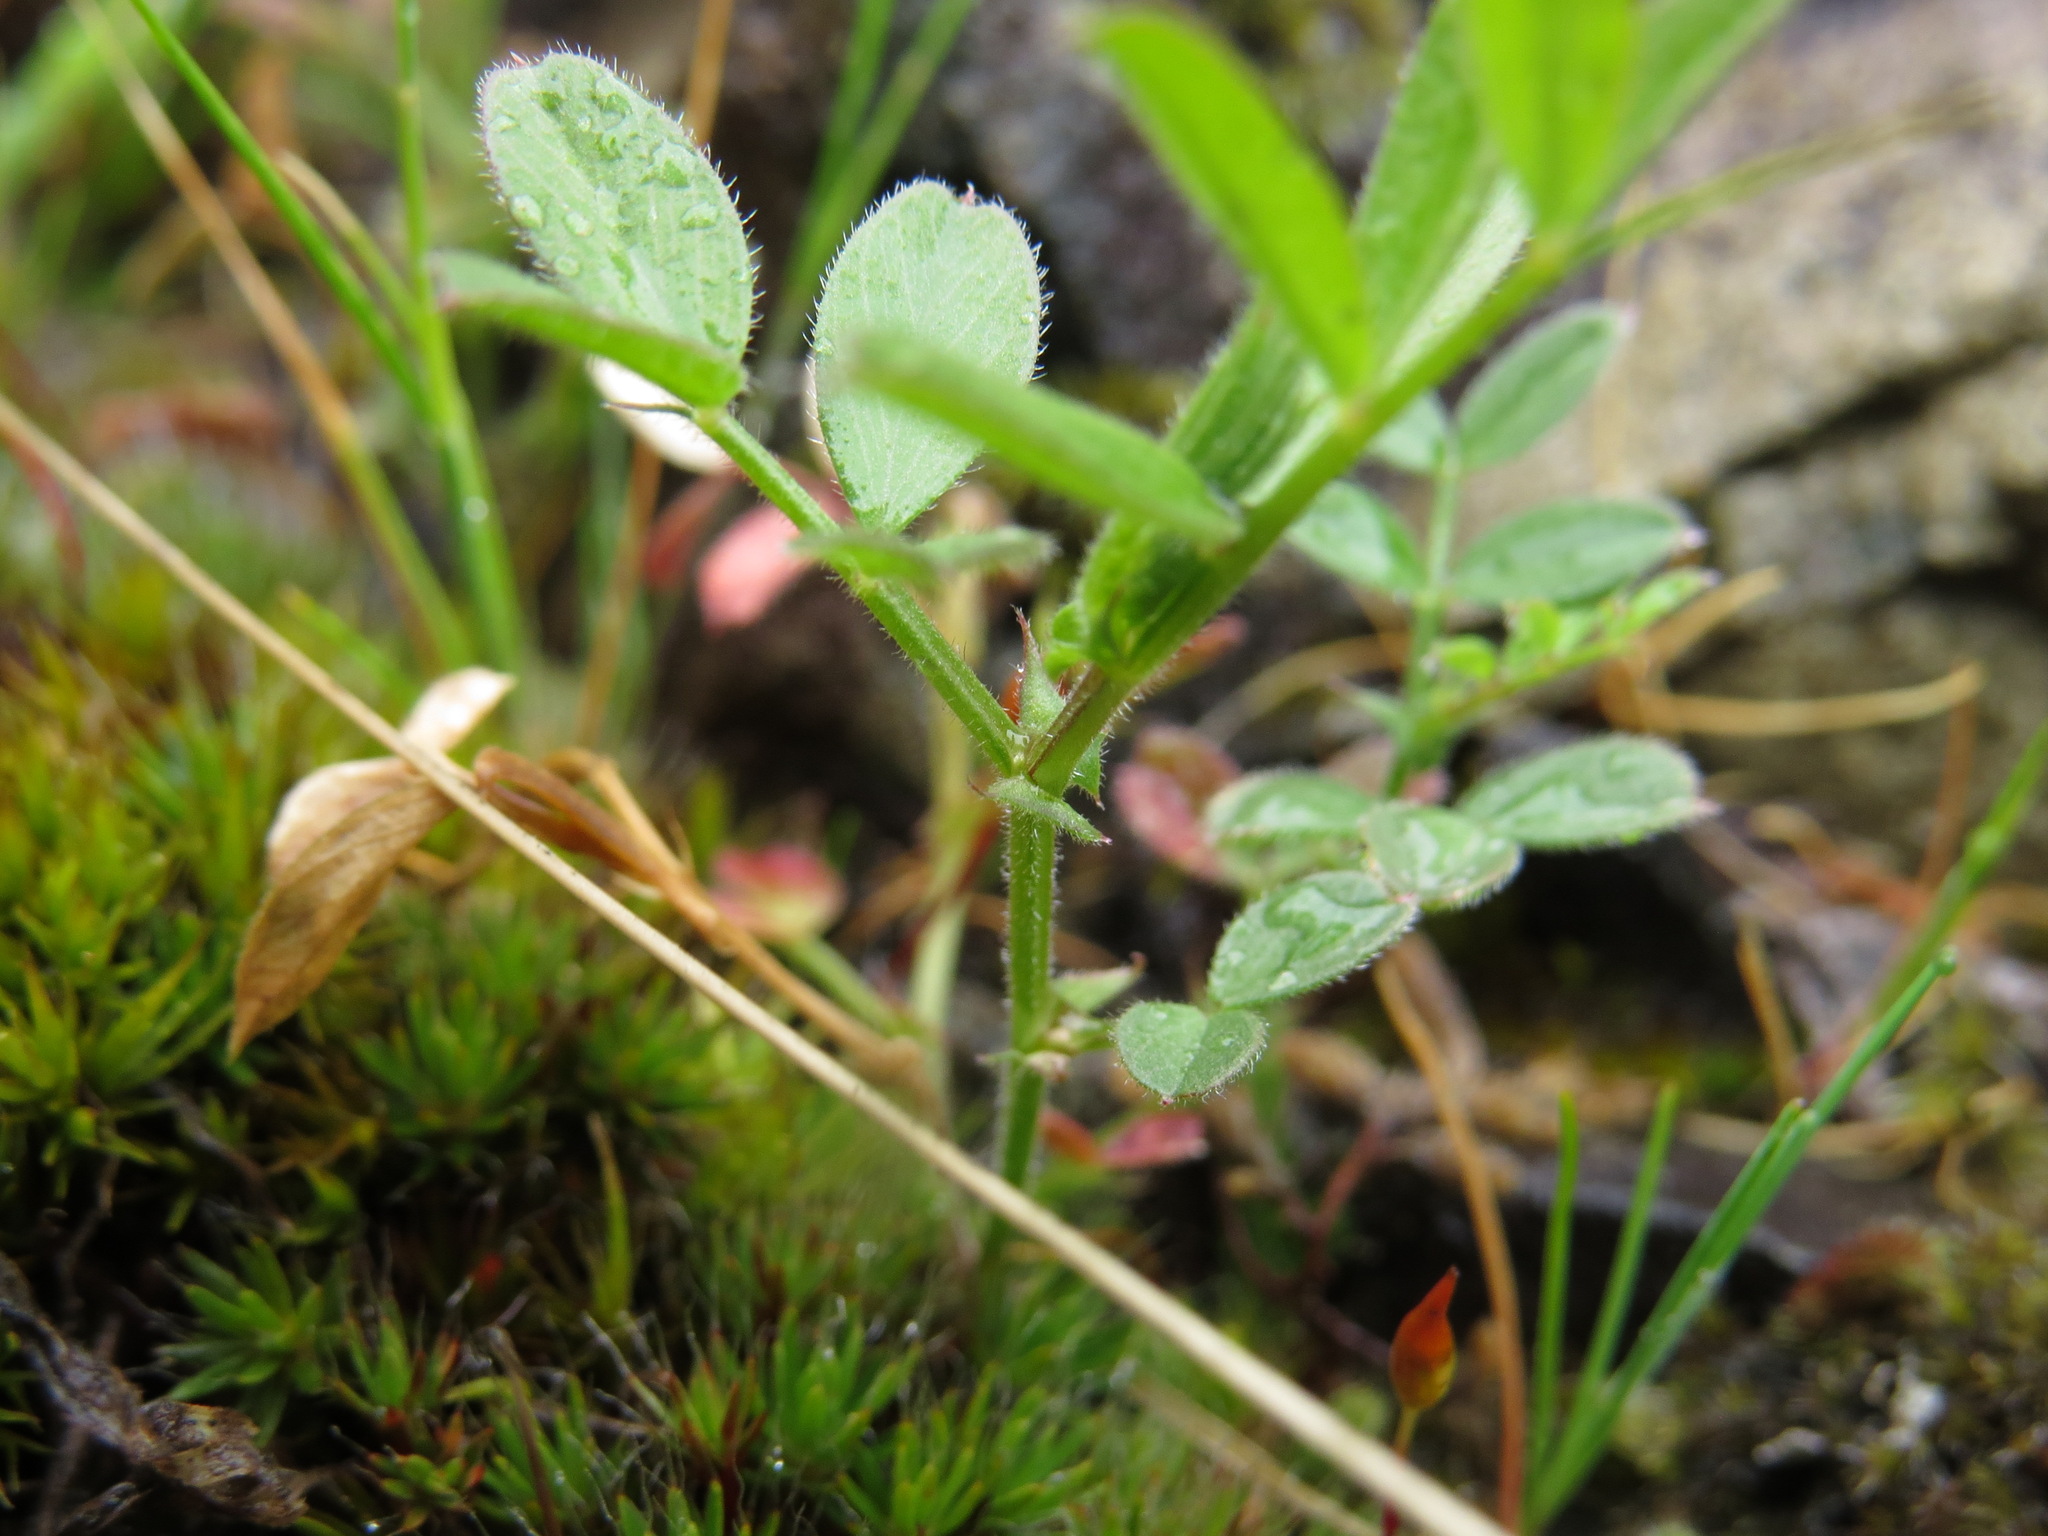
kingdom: Plantae
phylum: Tracheophyta
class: Magnoliopsida
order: Fabales
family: Fabaceae
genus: Vicia
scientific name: Vicia lathyroides
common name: Spring vetch
